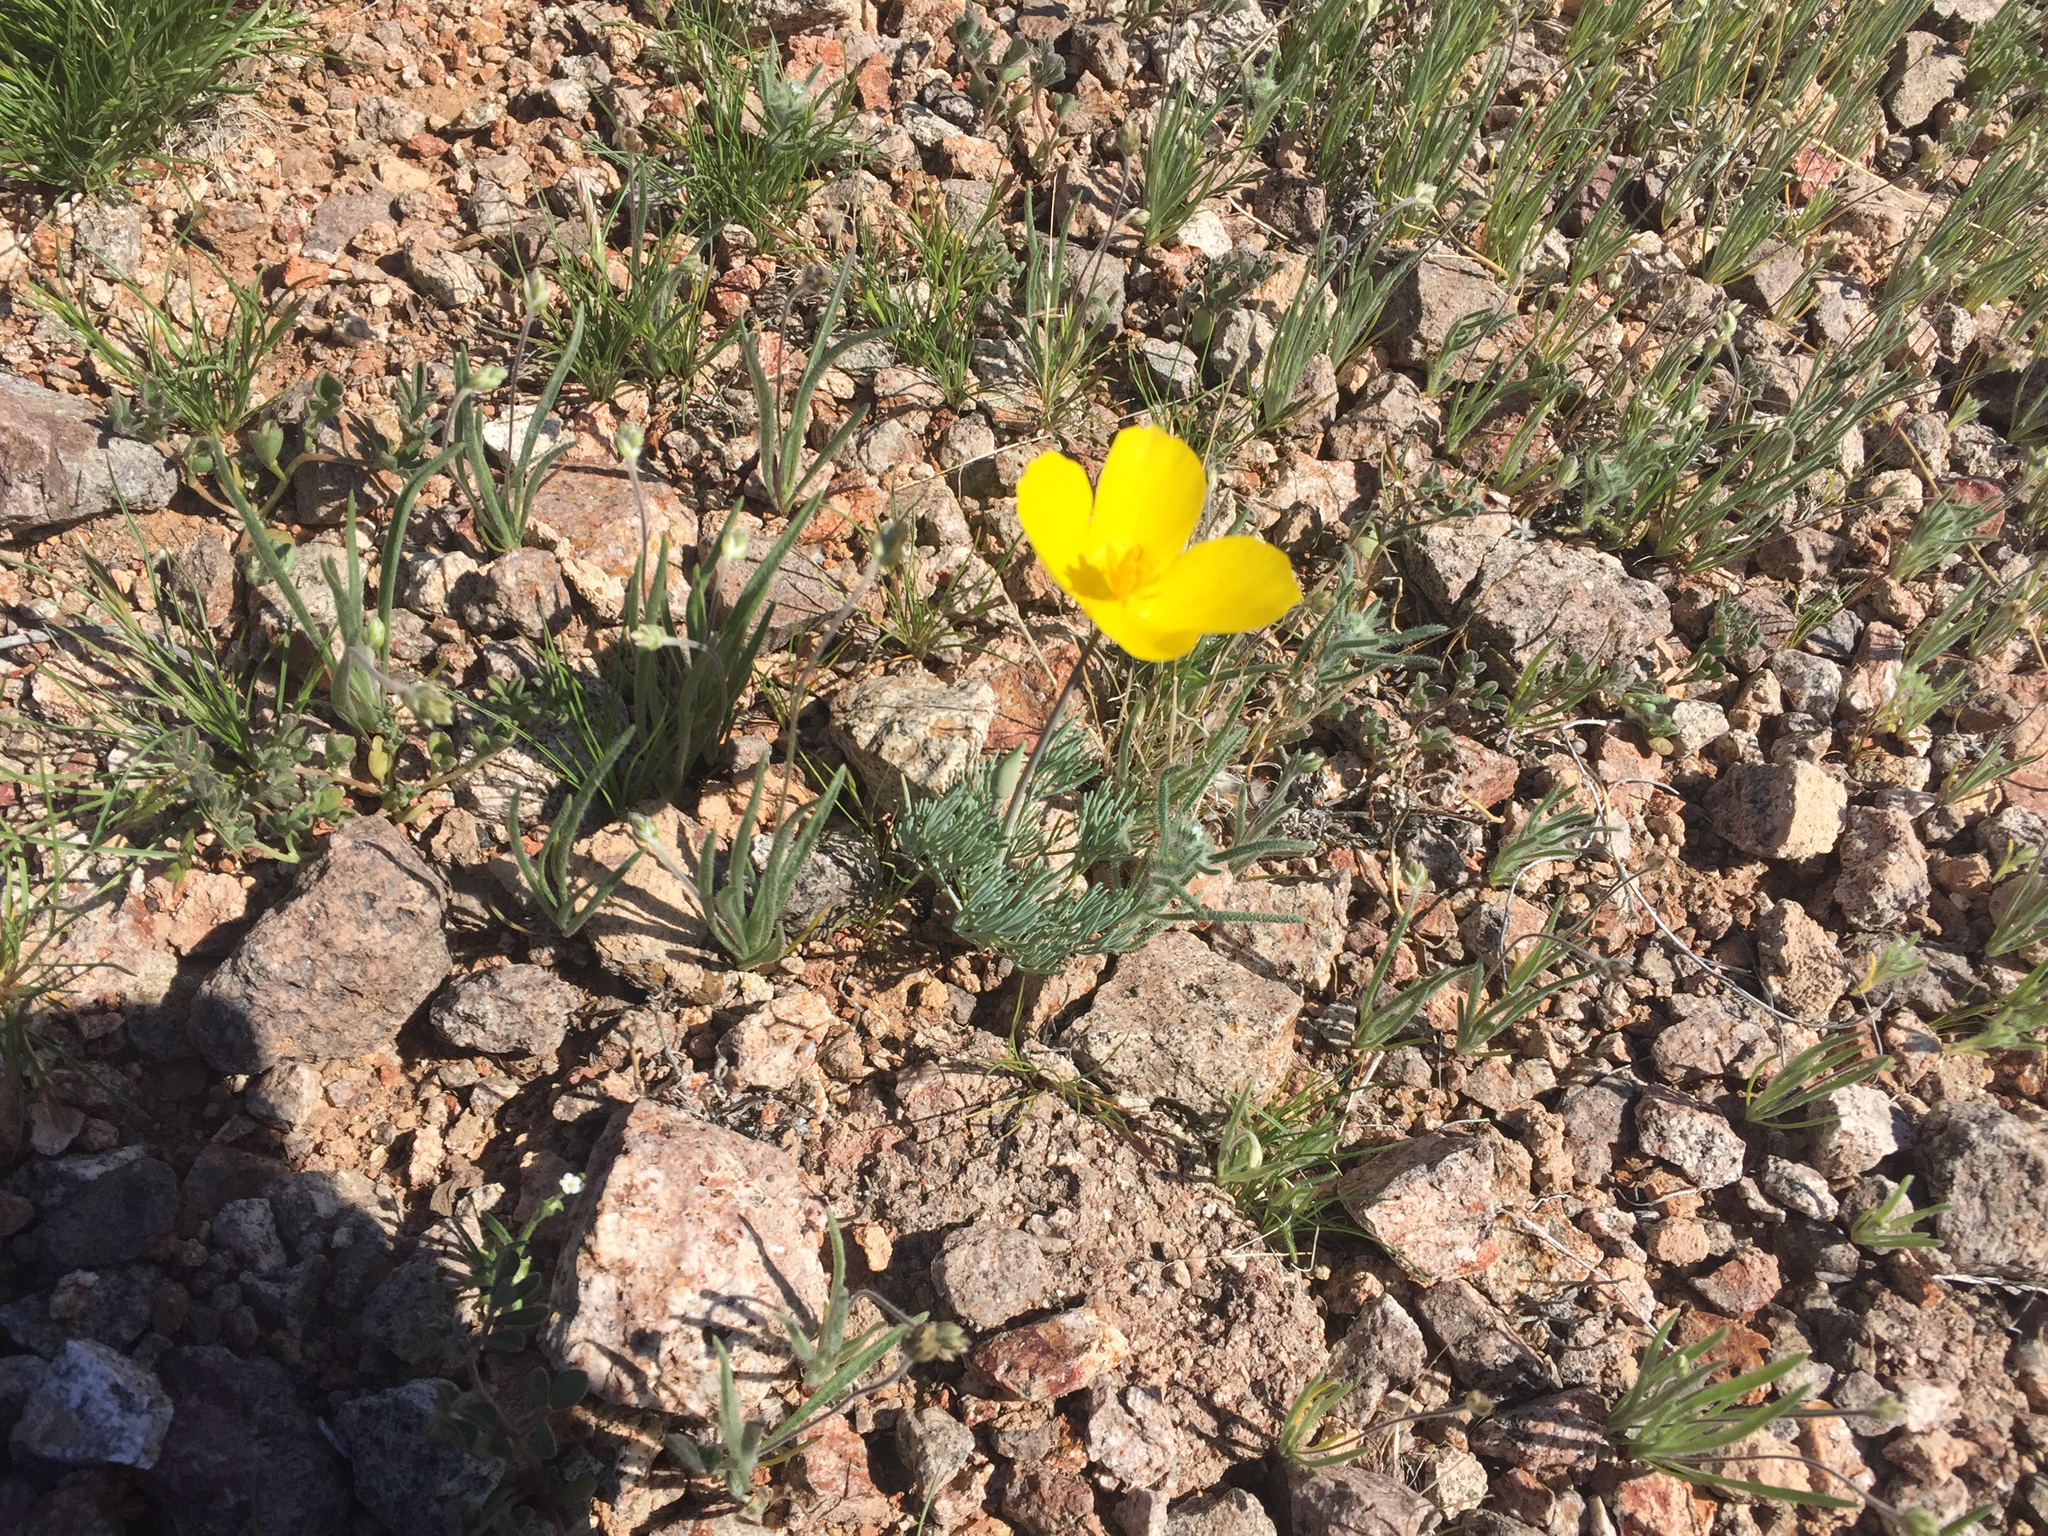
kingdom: Plantae
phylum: Tracheophyta
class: Magnoliopsida
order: Ranunculales
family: Papaveraceae
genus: Eschscholzia
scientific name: Eschscholzia glyptosperma
